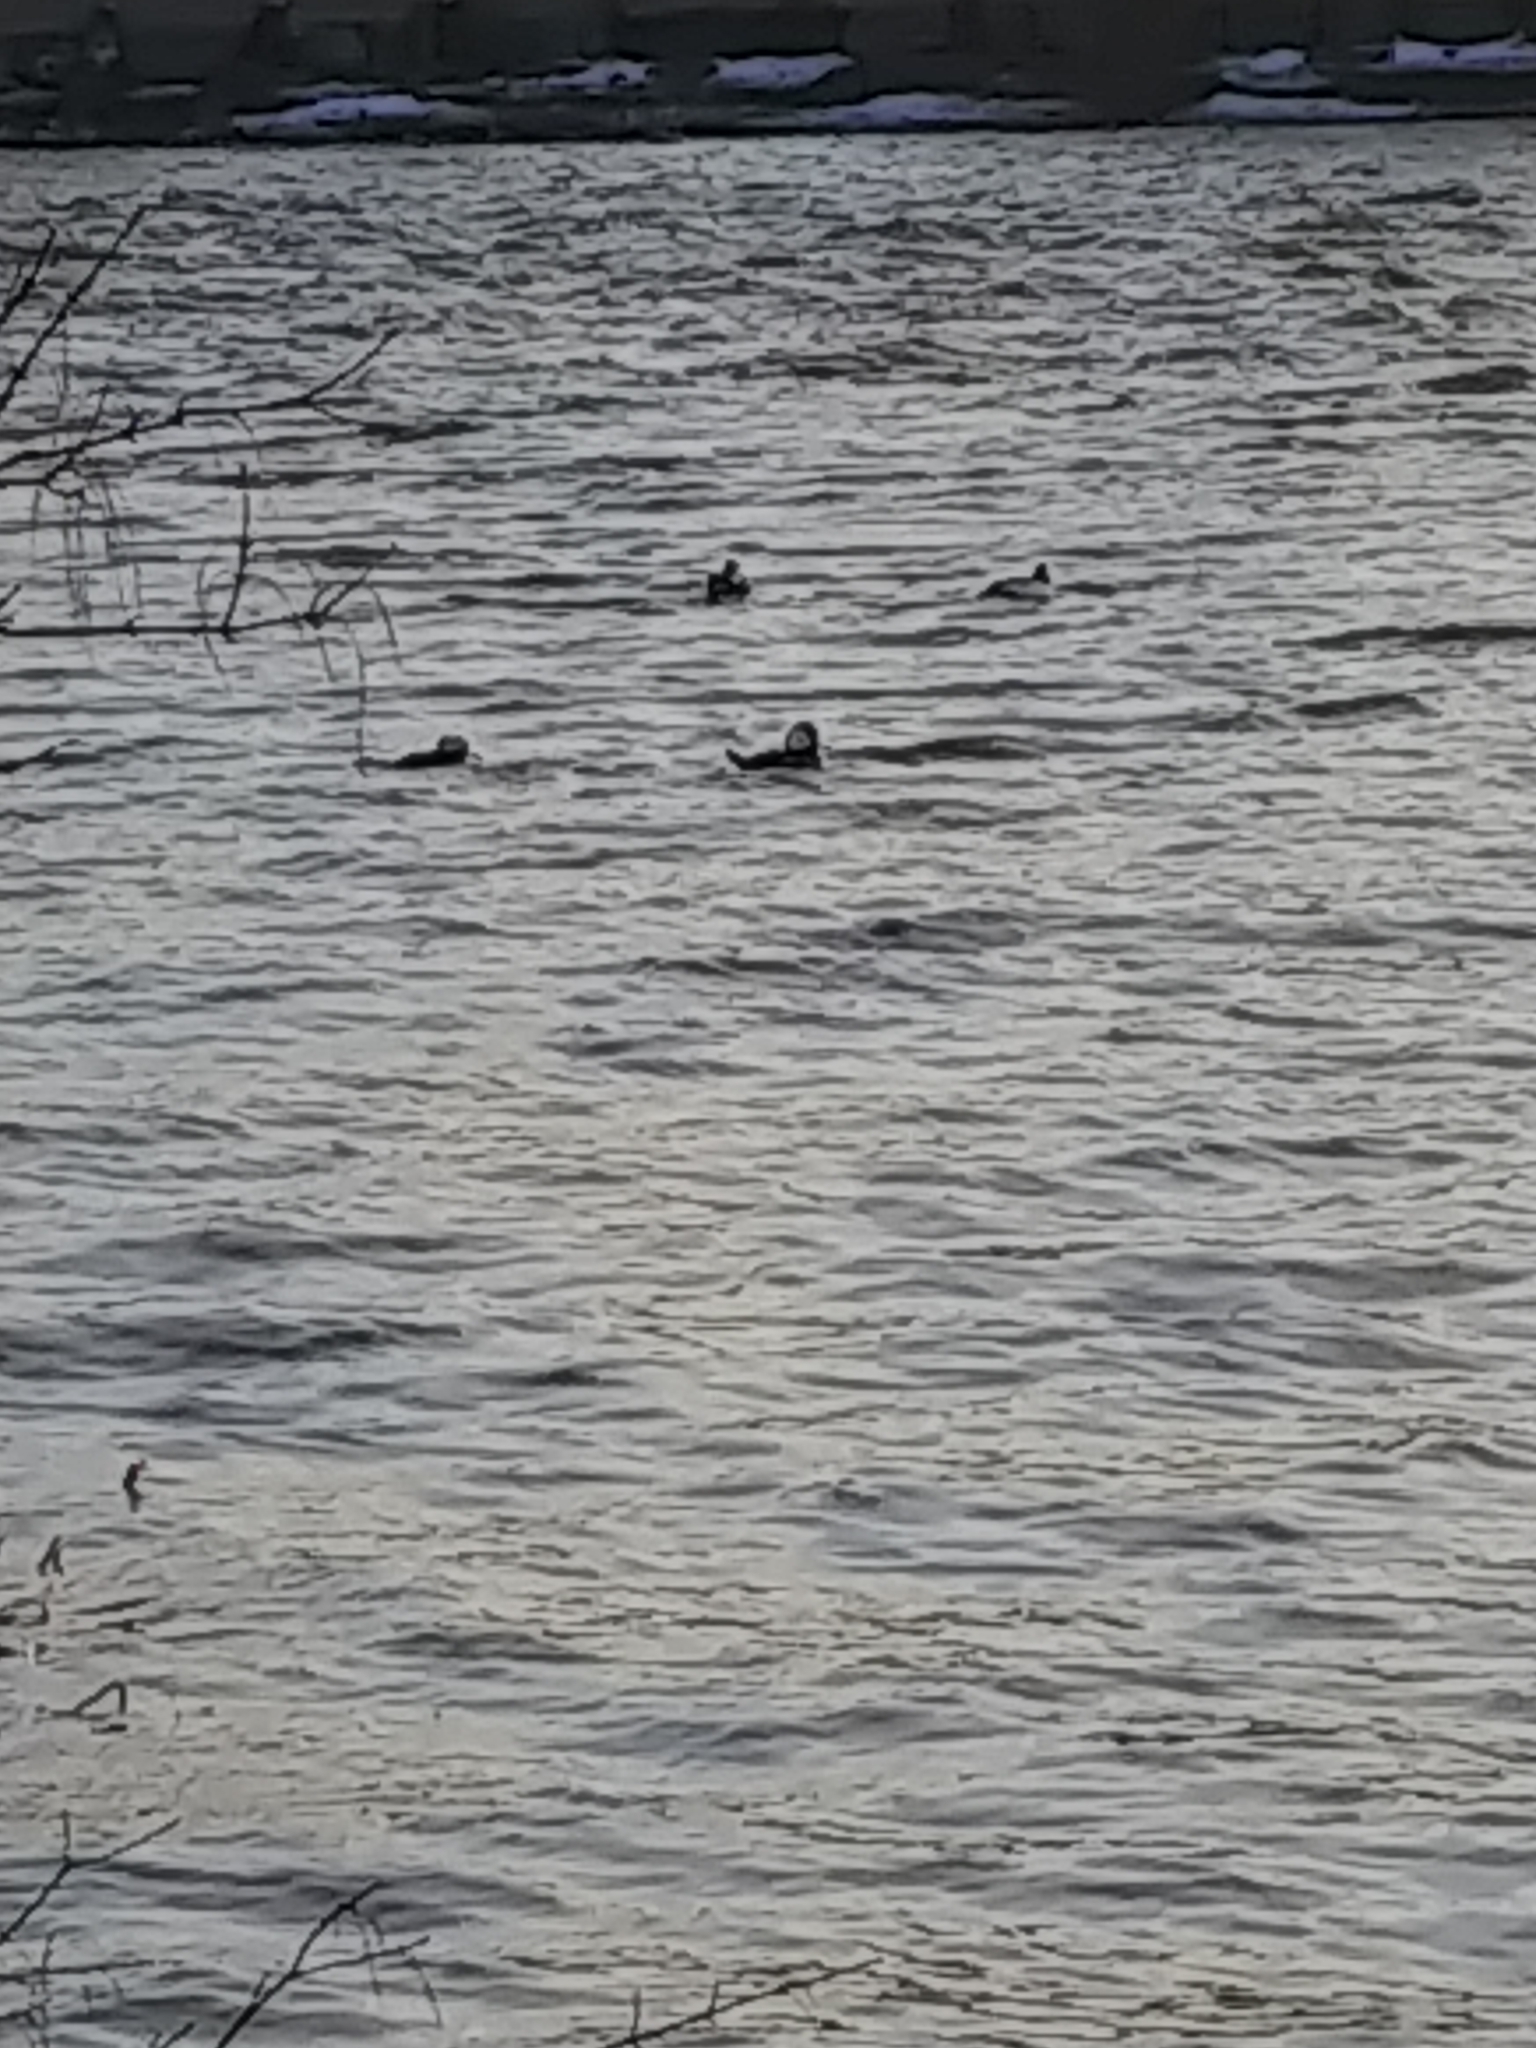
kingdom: Animalia
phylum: Chordata
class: Aves
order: Anseriformes
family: Anatidae
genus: Lophodytes
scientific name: Lophodytes cucullatus
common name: Hooded merganser
